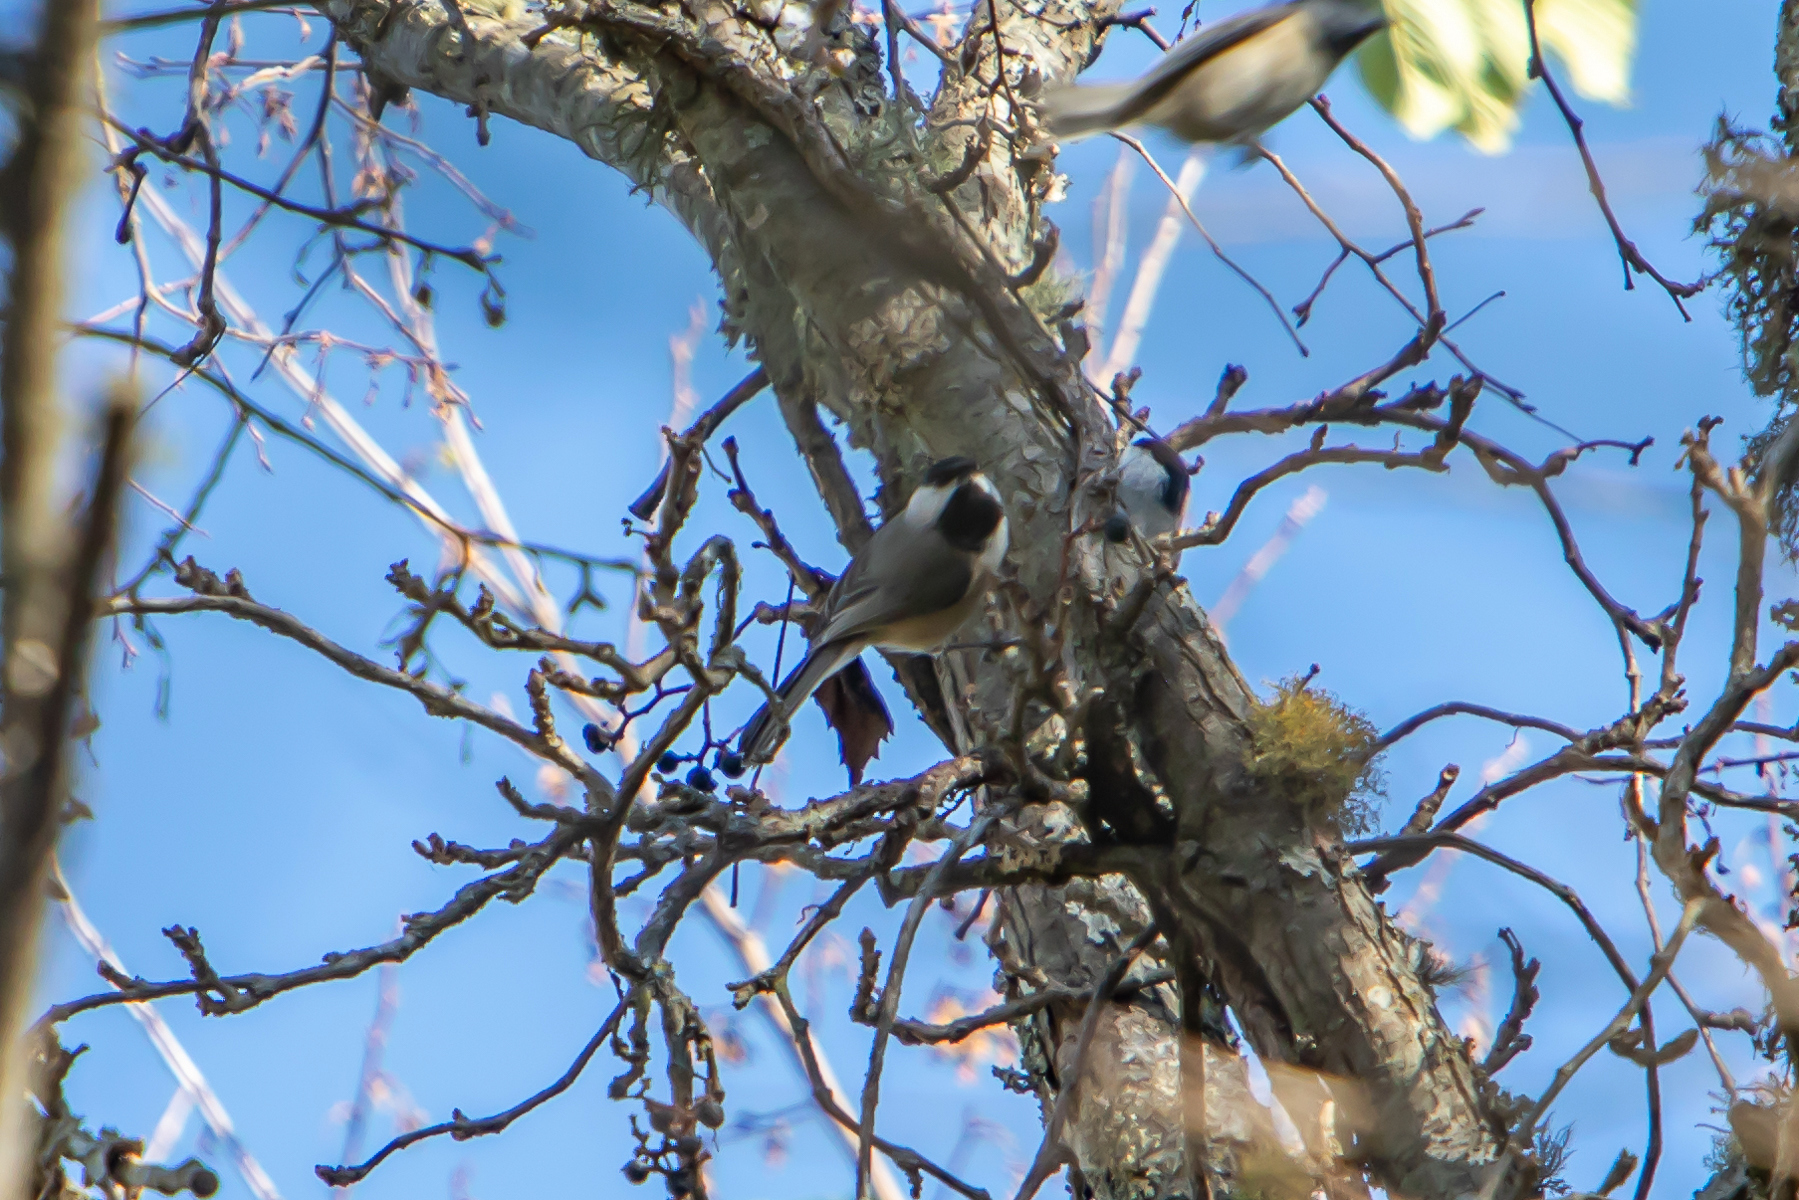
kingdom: Animalia
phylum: Chordata
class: Aves
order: Passeriformes
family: Paridae
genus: Poecile
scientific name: Poecile carolinensis
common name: Carolina chickadee
